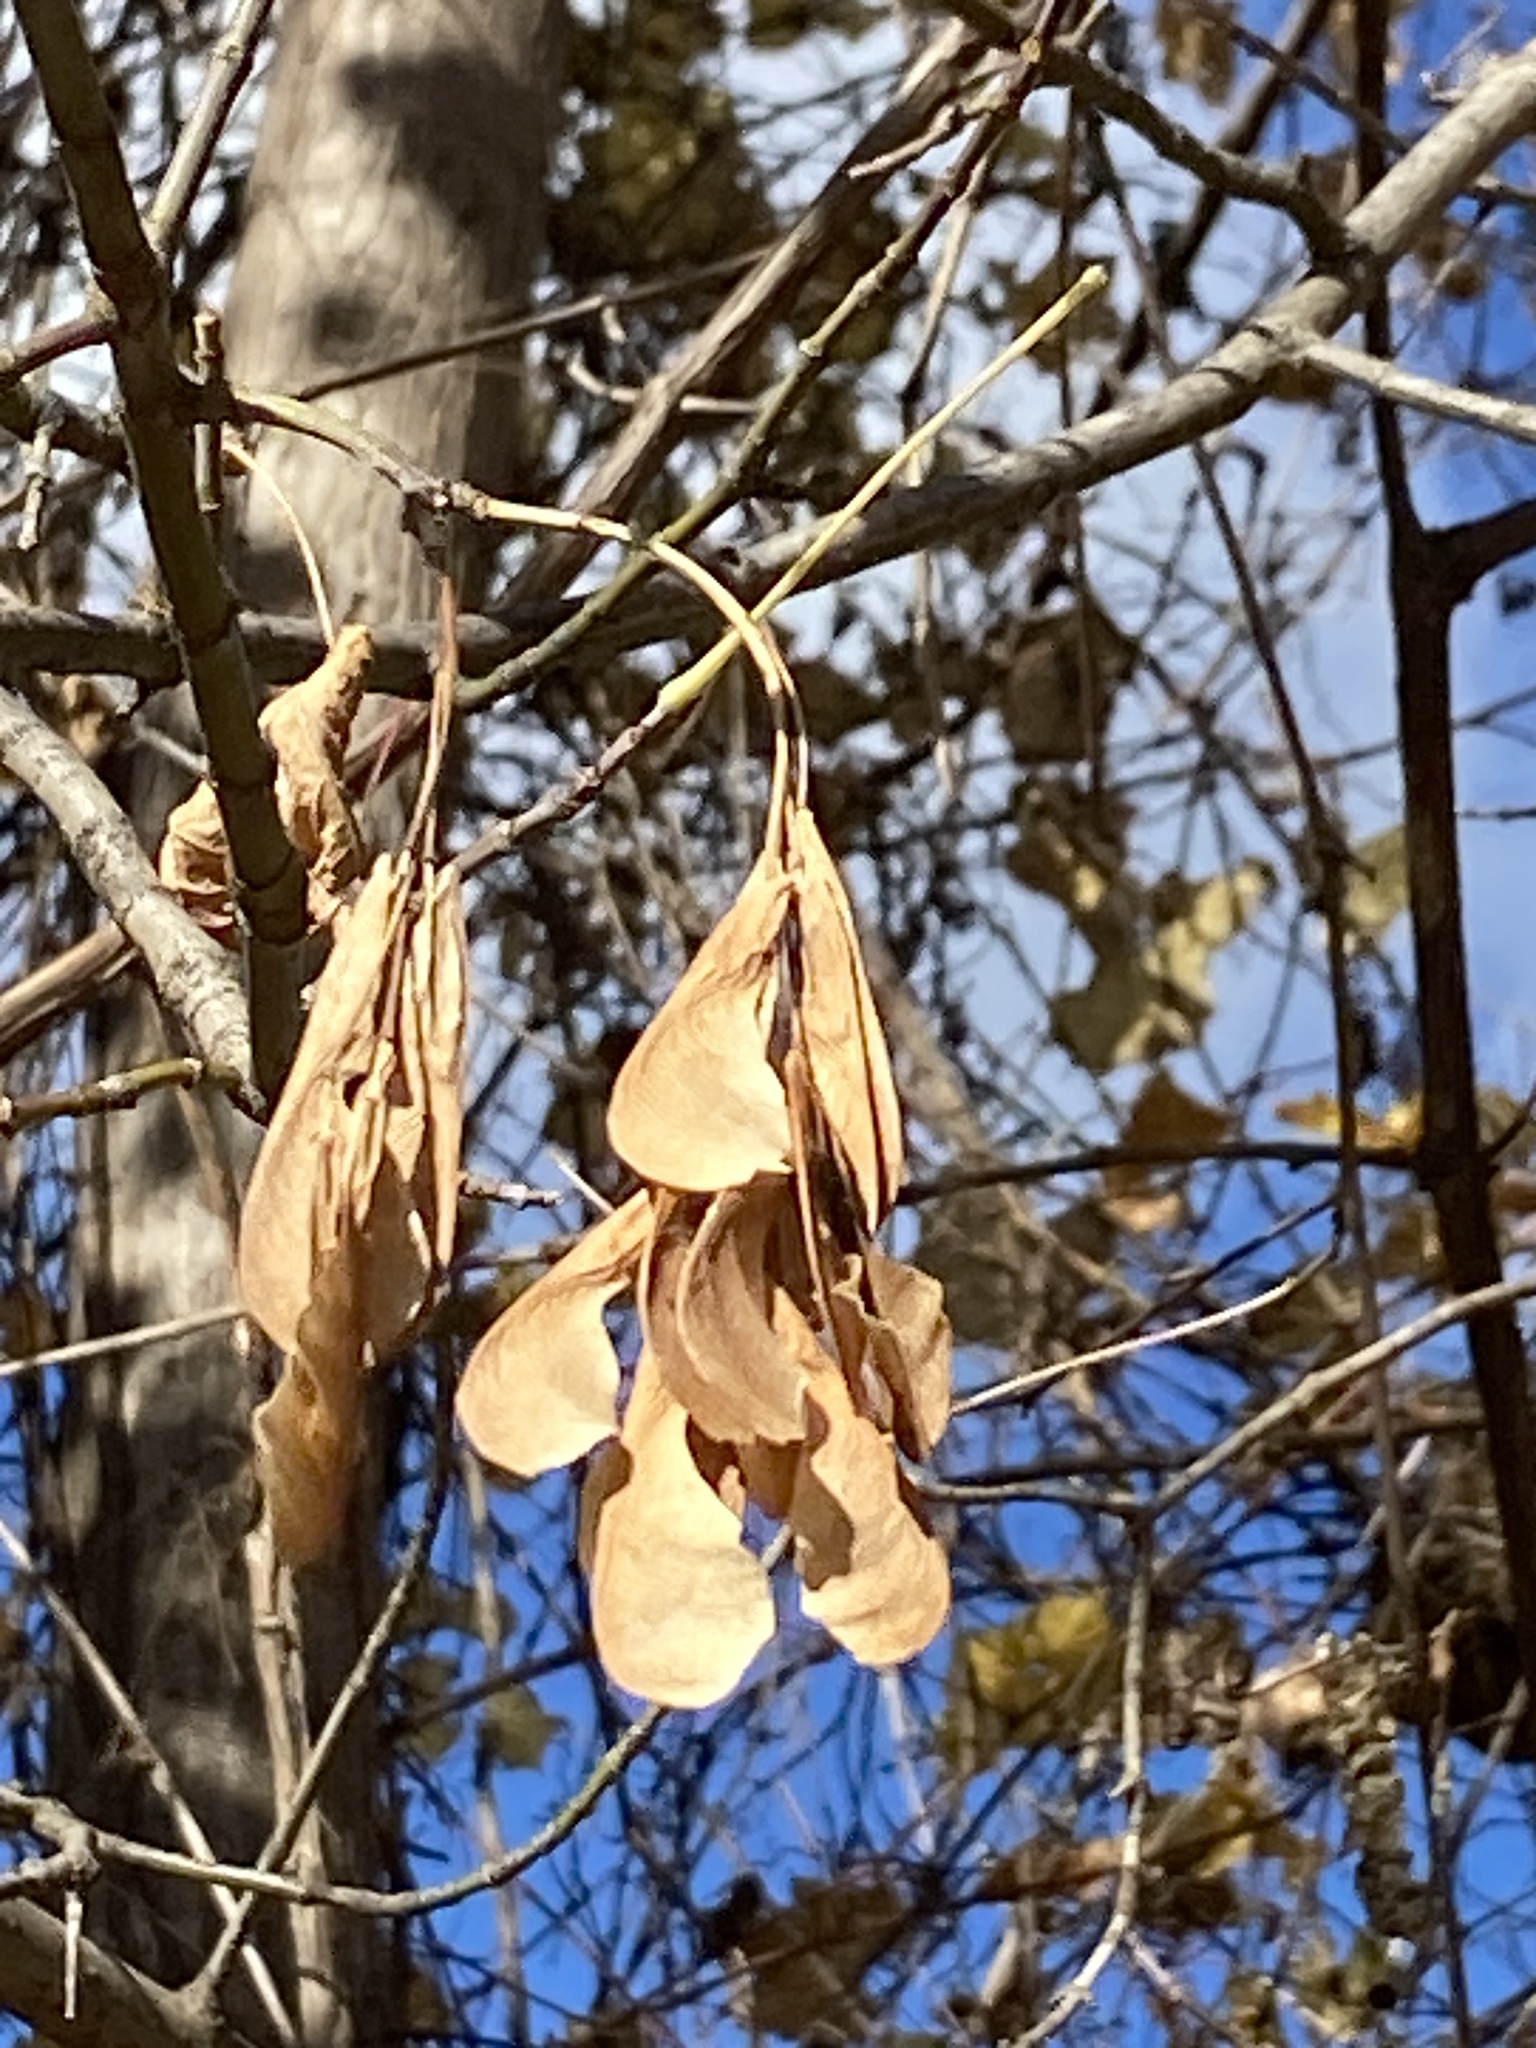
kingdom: Plantae
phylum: Tracheophyta
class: Magnoliopsida
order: Sapindales
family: Sapindaceae
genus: Acer
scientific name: Acer negundo
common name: Ashleaf maple
